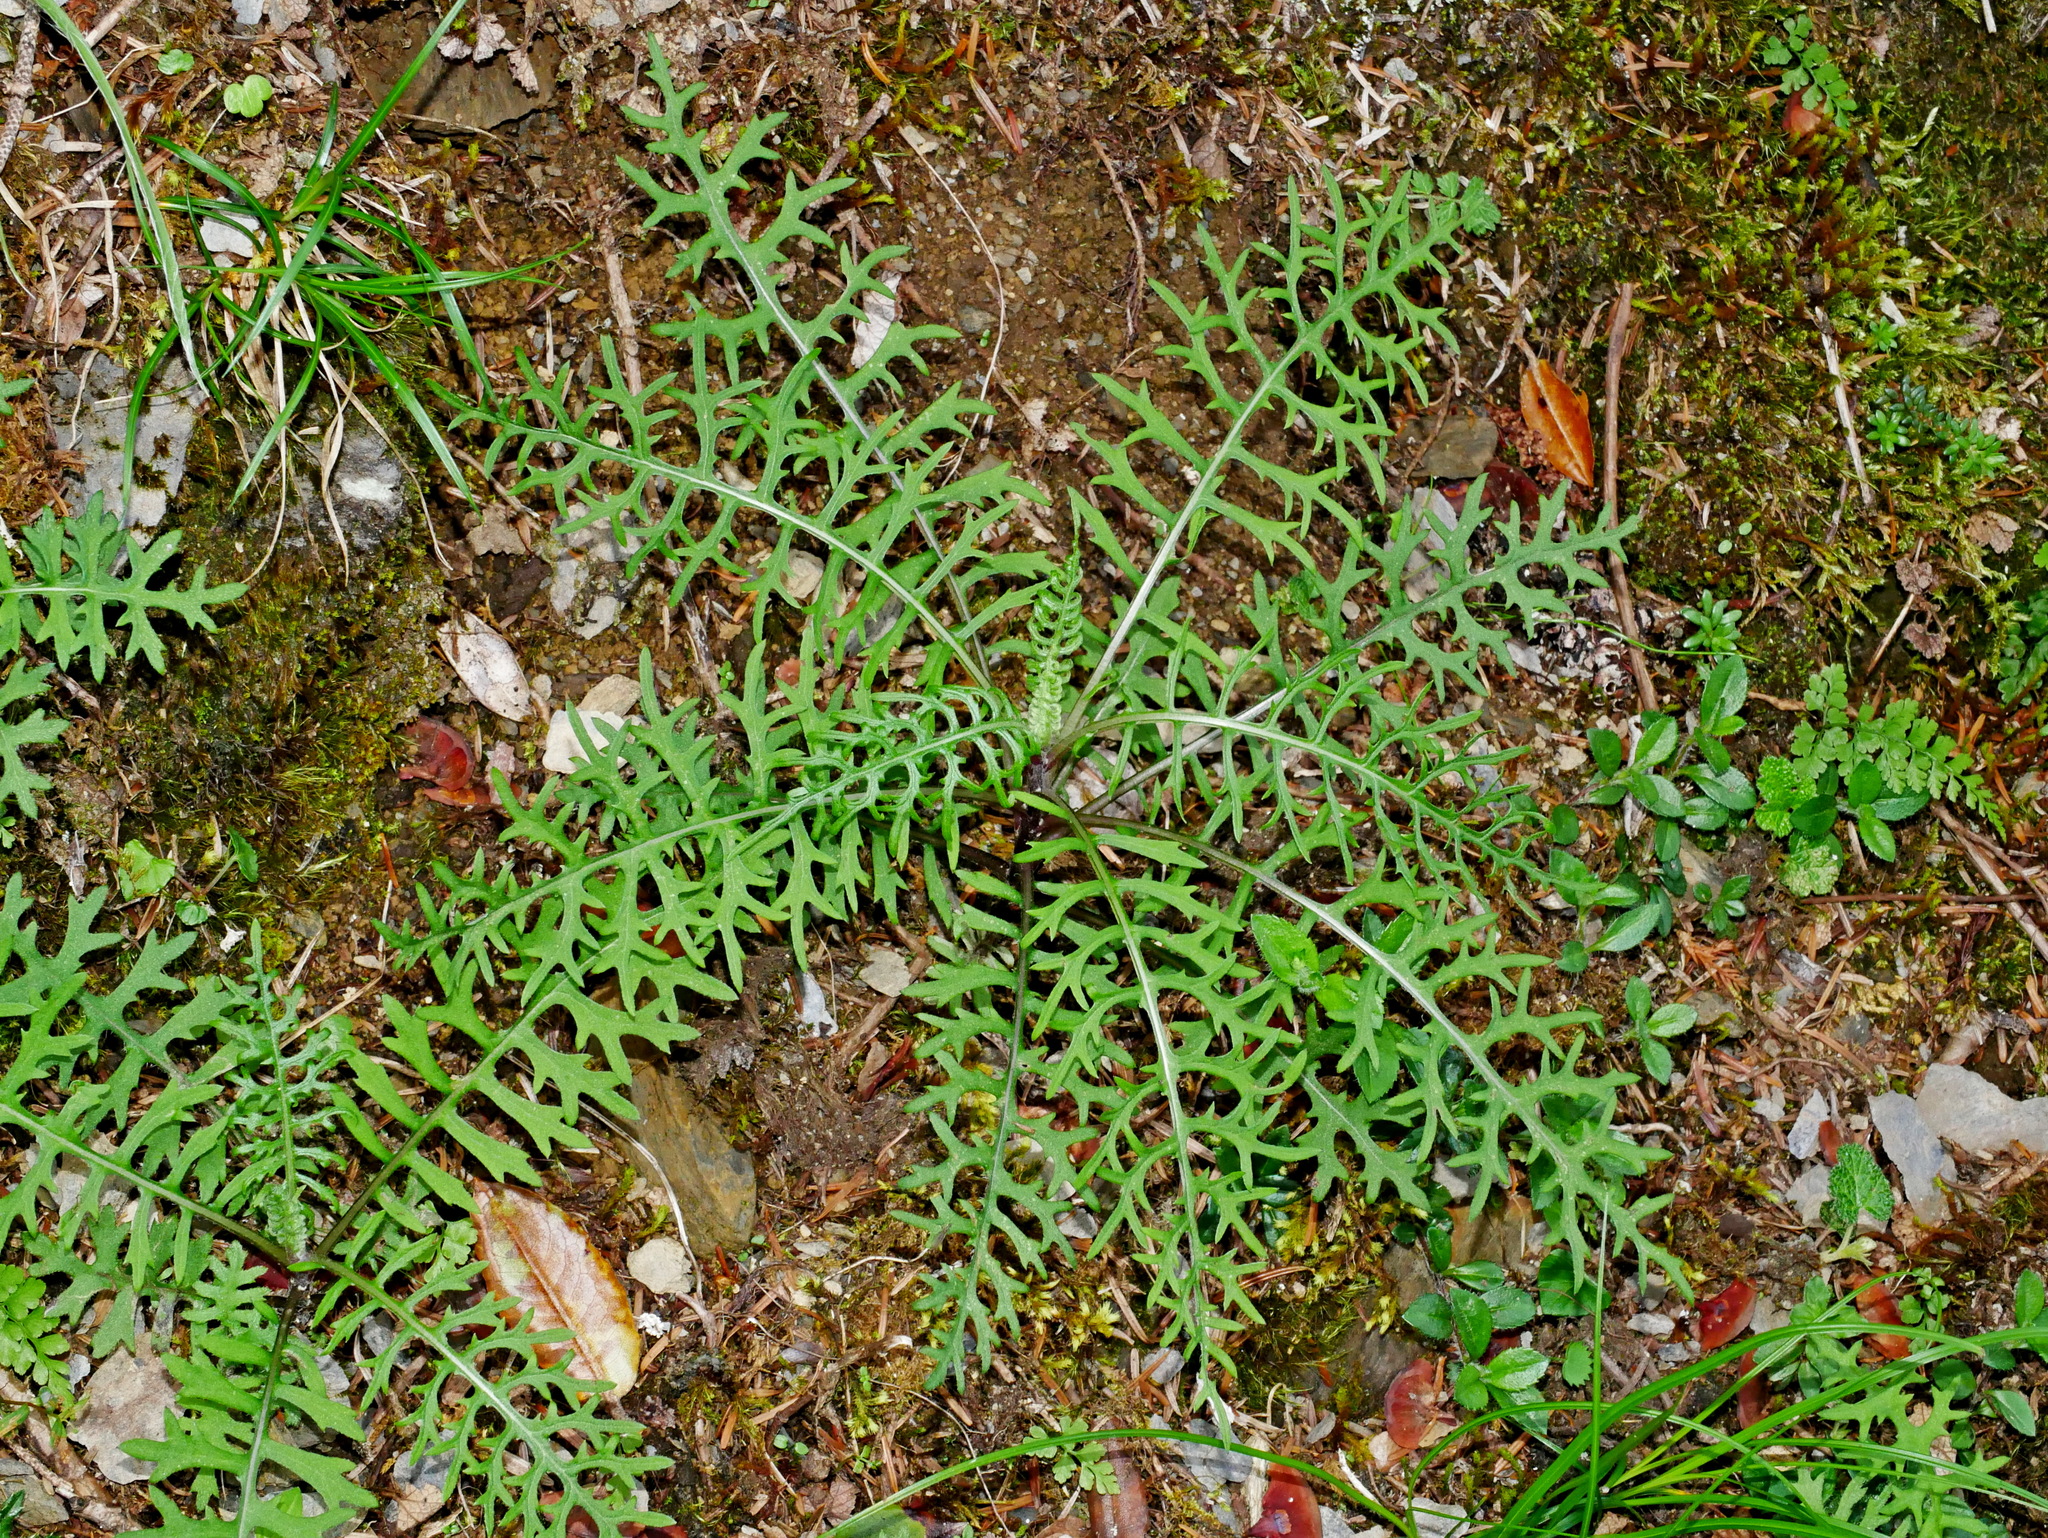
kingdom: Plantae
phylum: Tracheophyta
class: Magnoliopsida
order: Asterales
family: Asteraceae
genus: Jacobaea
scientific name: Jacobaea kuanshanensis
